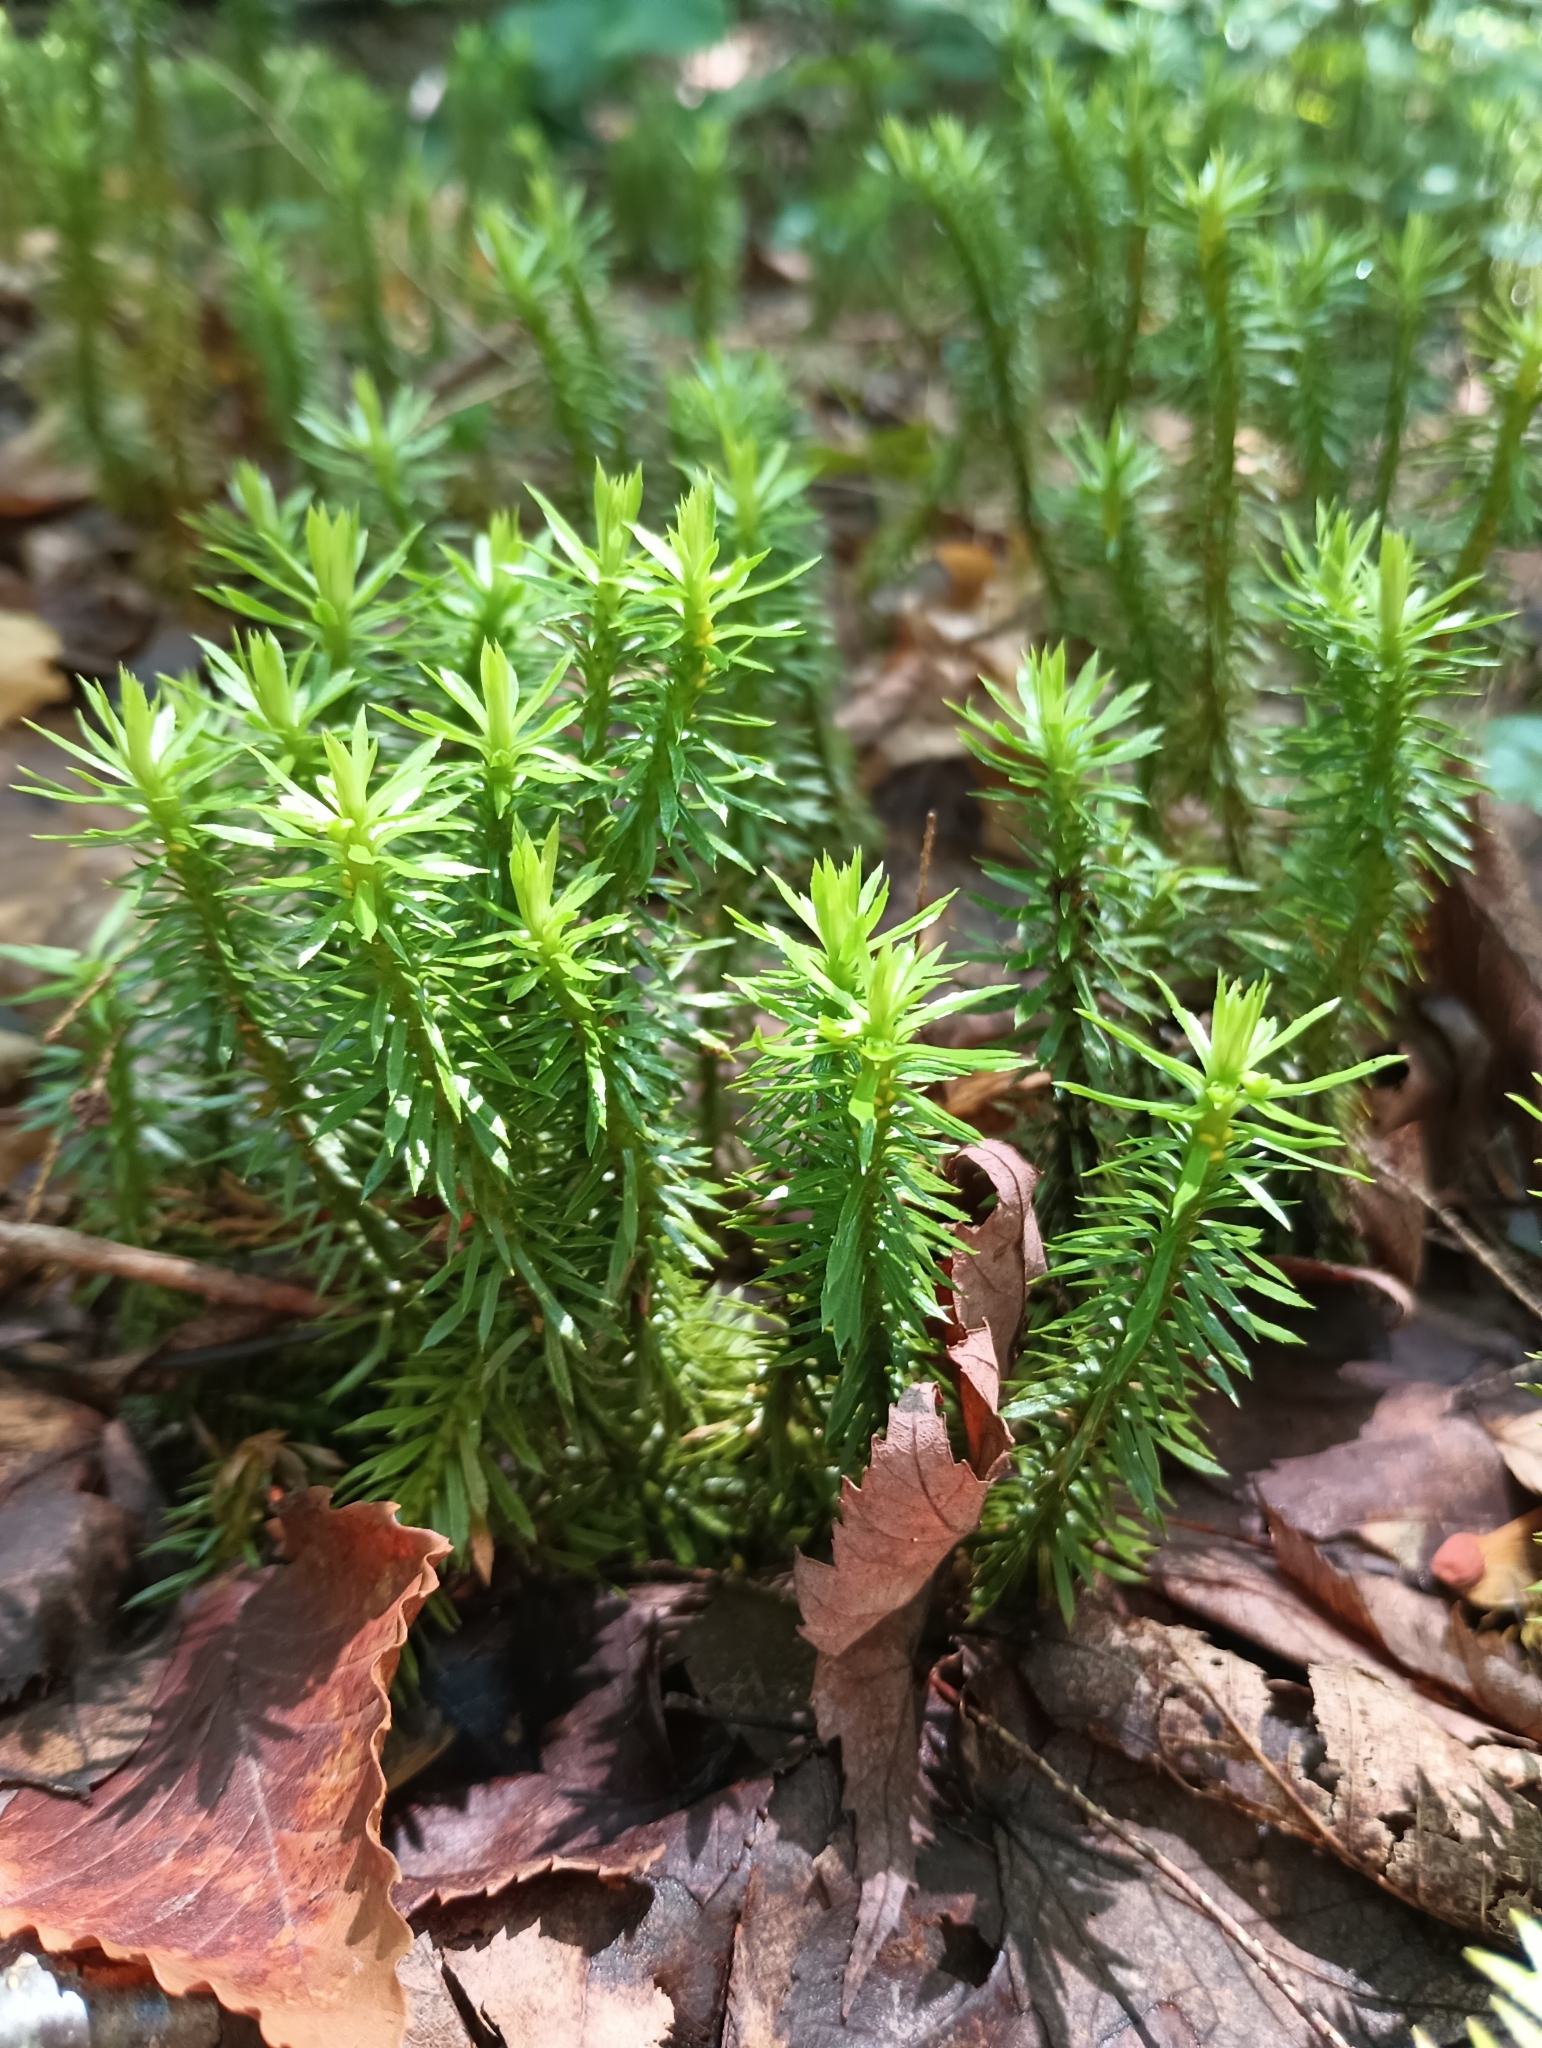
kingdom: Plantae
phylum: Tracheophyta
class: Lycopodiopsida
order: Lycopodiales
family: Lycopodiaceae
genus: Huperzia
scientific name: Huperzia lucidula
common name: Shining clubmoss
